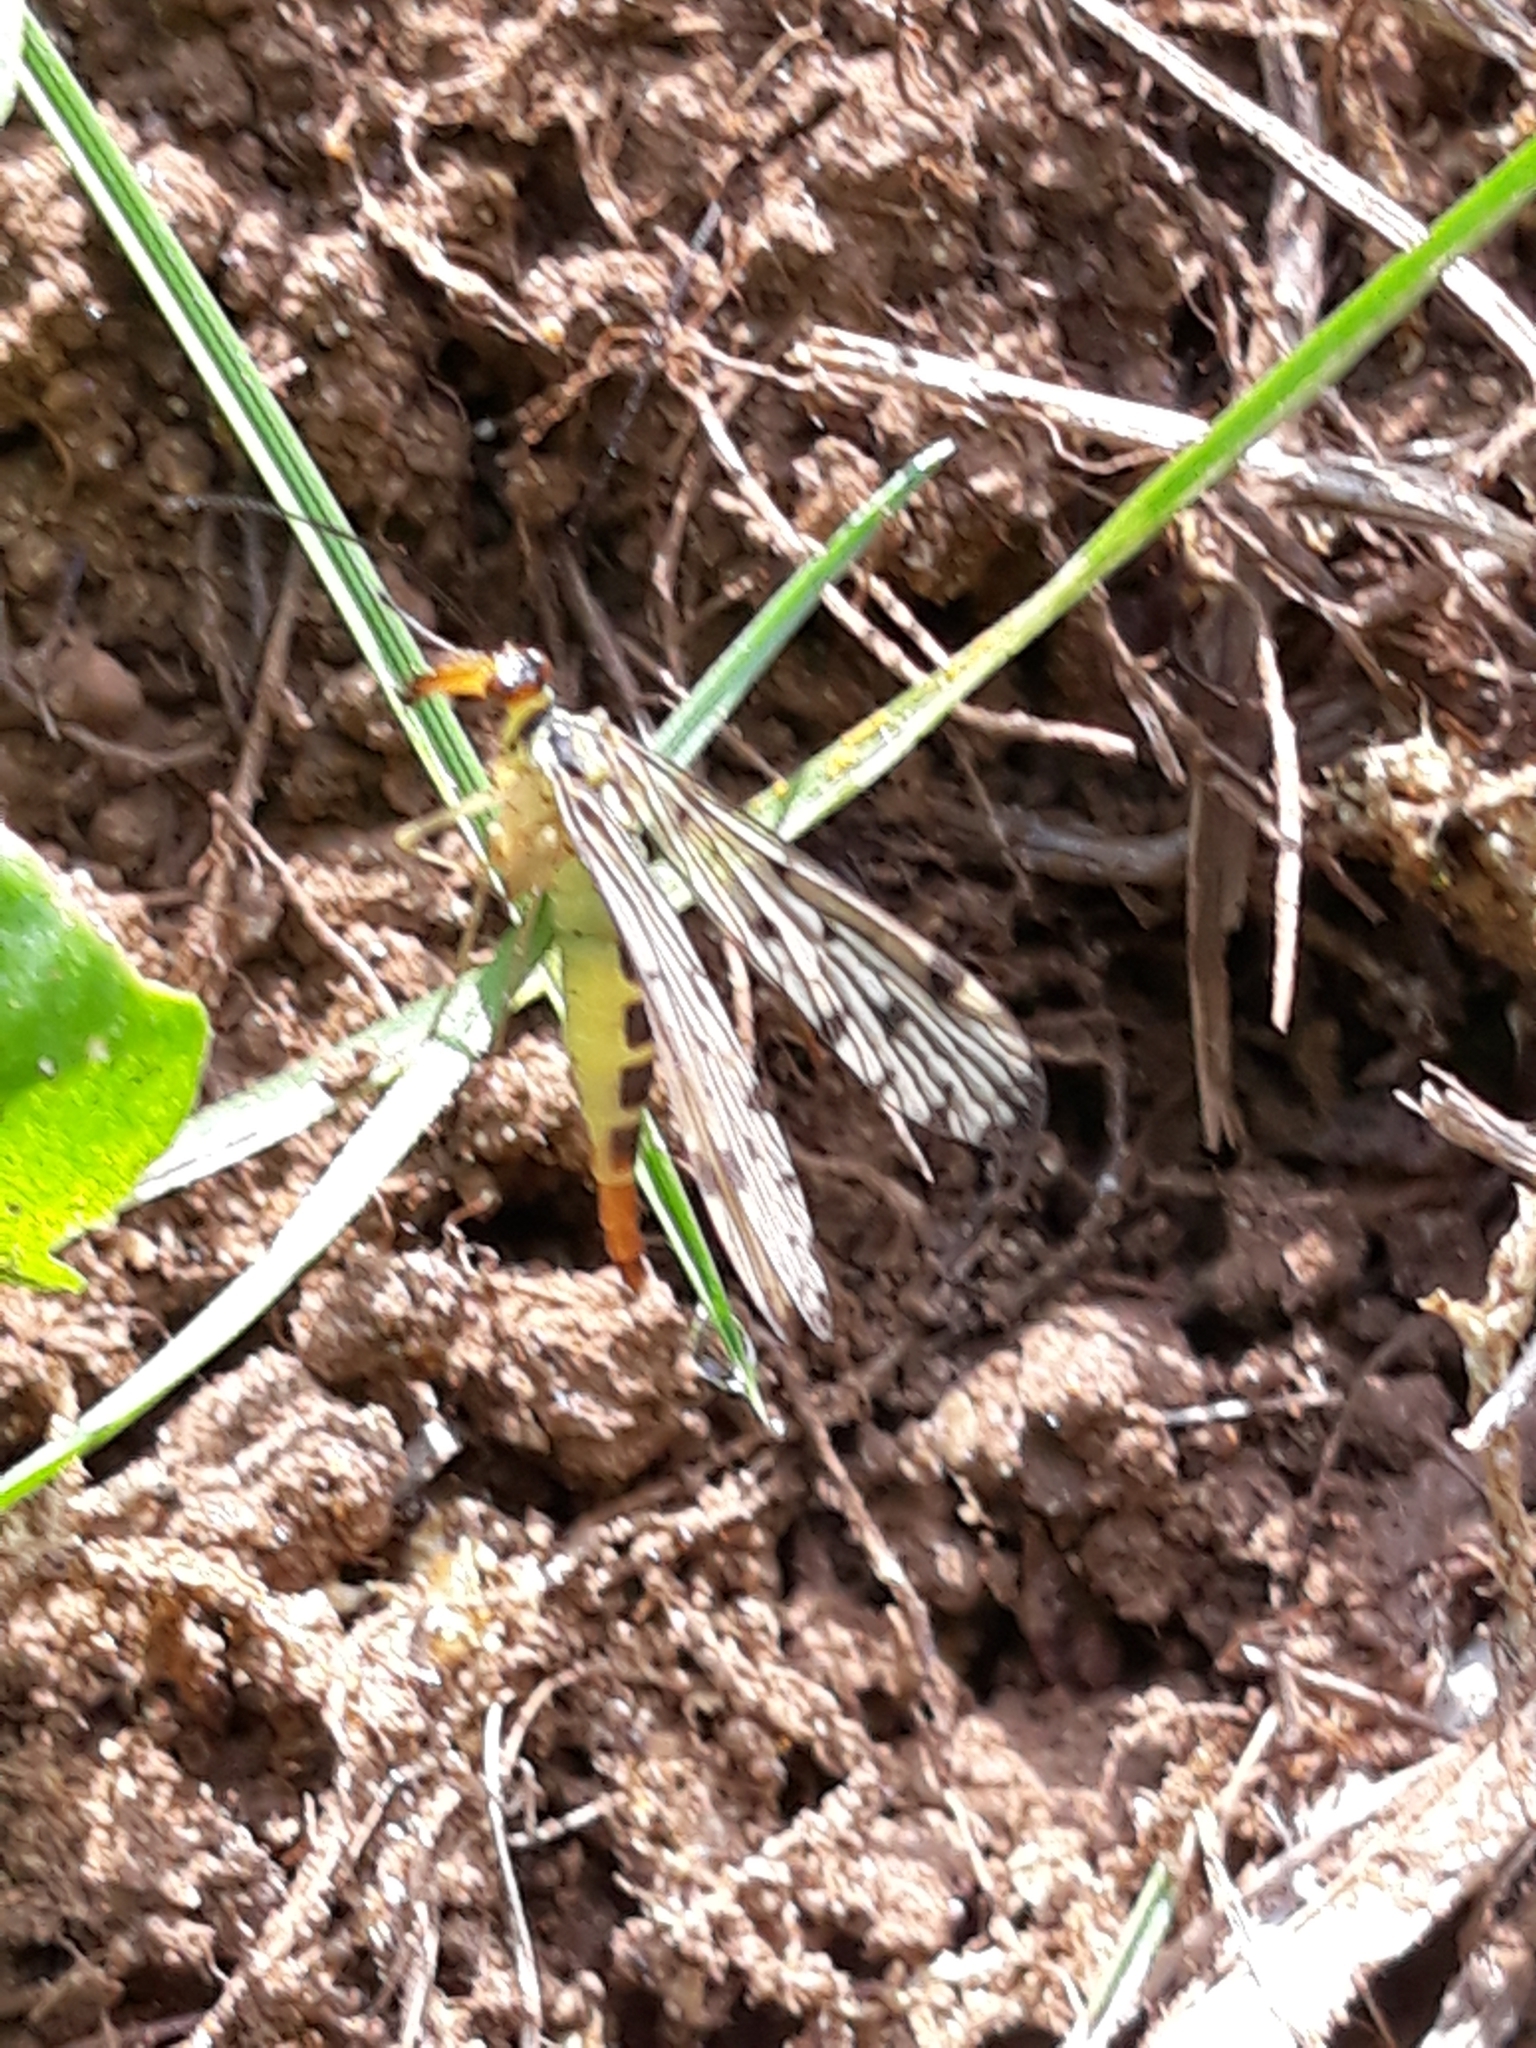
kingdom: Animalia
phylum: Arthropoda
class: Insecta
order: Mecoptera
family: Panorpidae
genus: Panorpa
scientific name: Panorpa germanica
